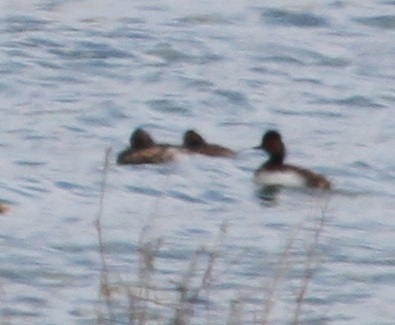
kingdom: Animalia
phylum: Chordata
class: Aves
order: Podicipediformes
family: Podicipedidae
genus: Podiceps
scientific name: Podiceps nigricollis
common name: Black-necked grebe
